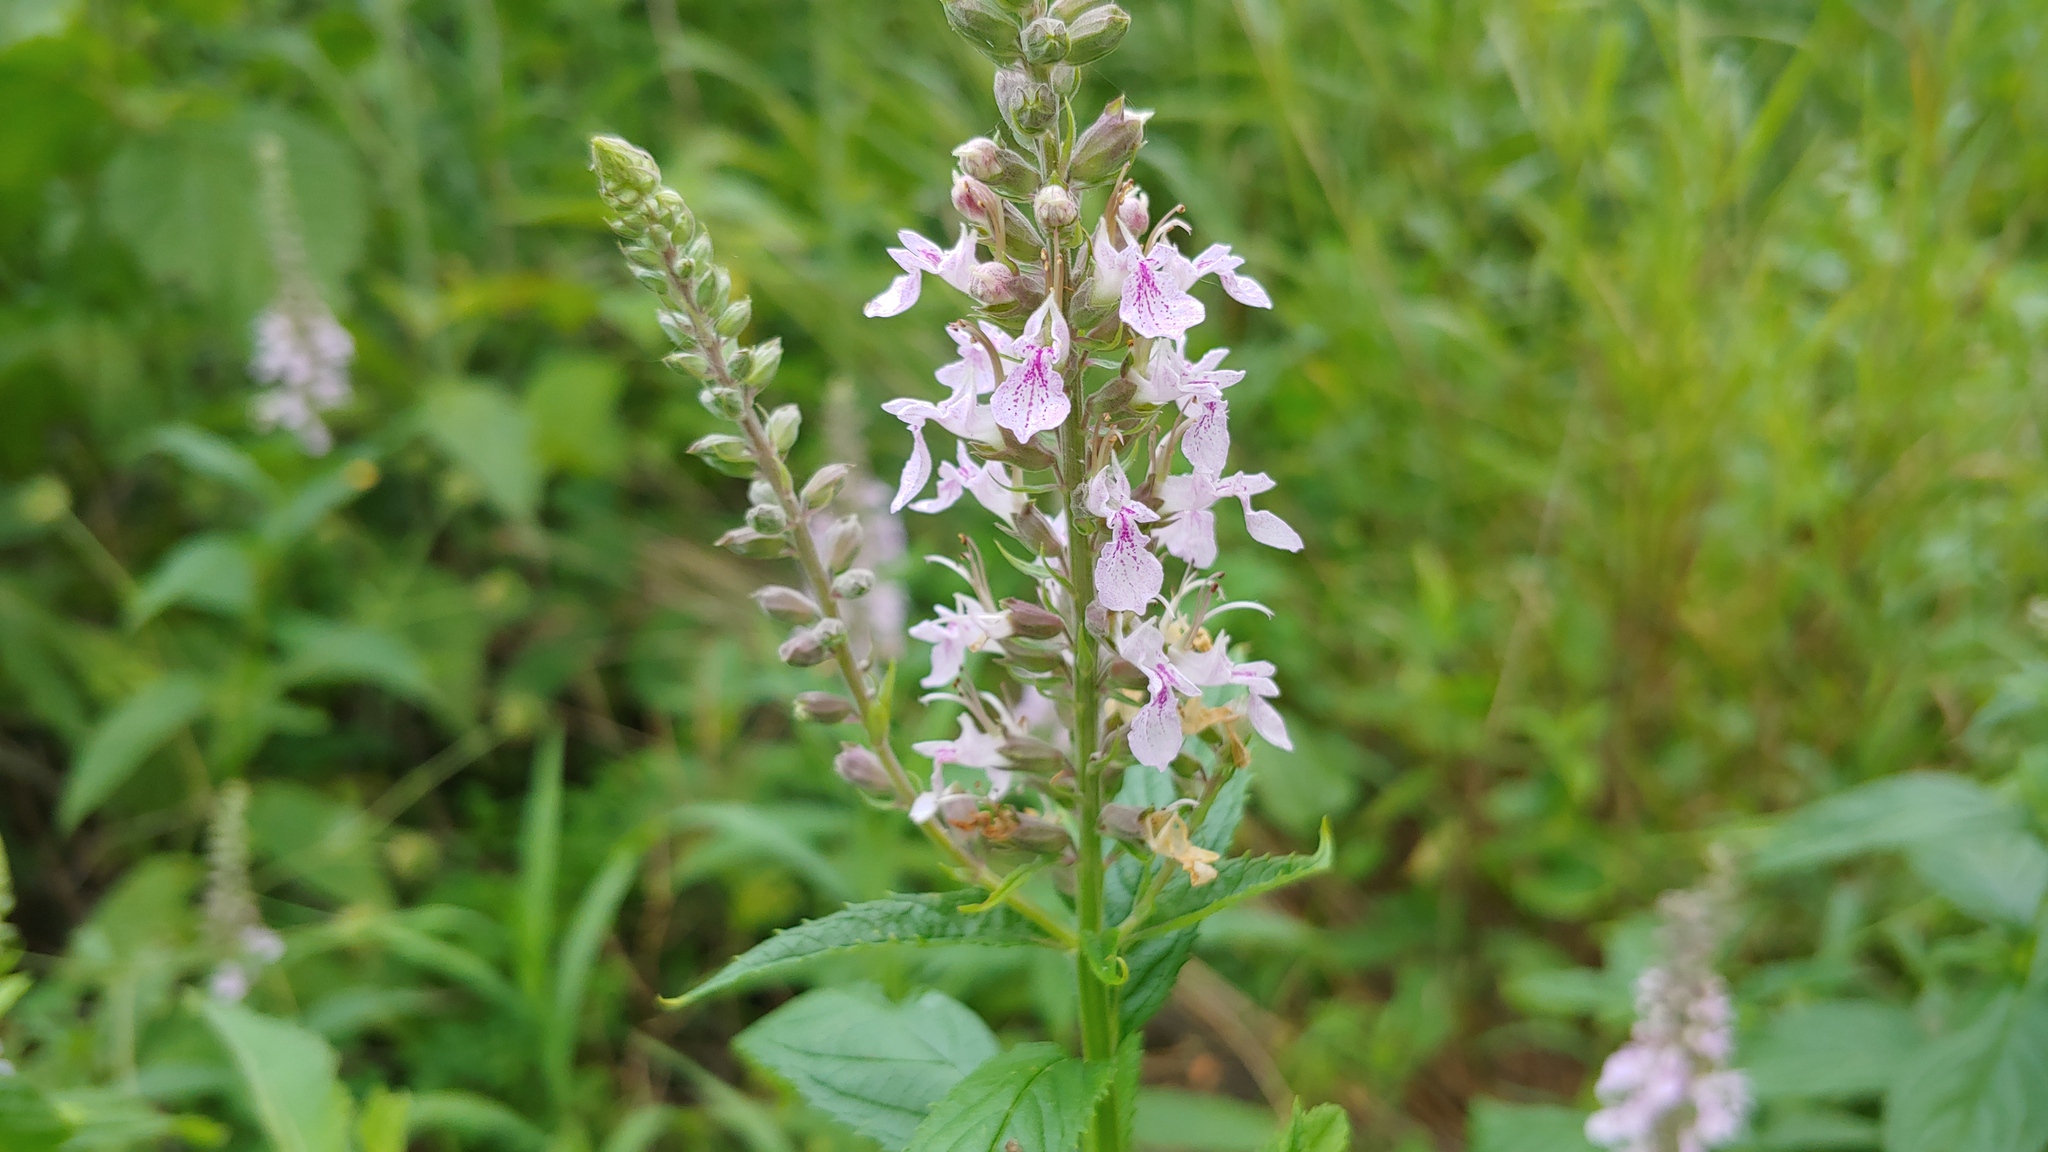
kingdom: Plantae
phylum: Tracheophyta
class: Magnoliopsida
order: Lamiales
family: Lamiaceae
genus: Teucrium
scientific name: Teucrium canadense
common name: American germander
